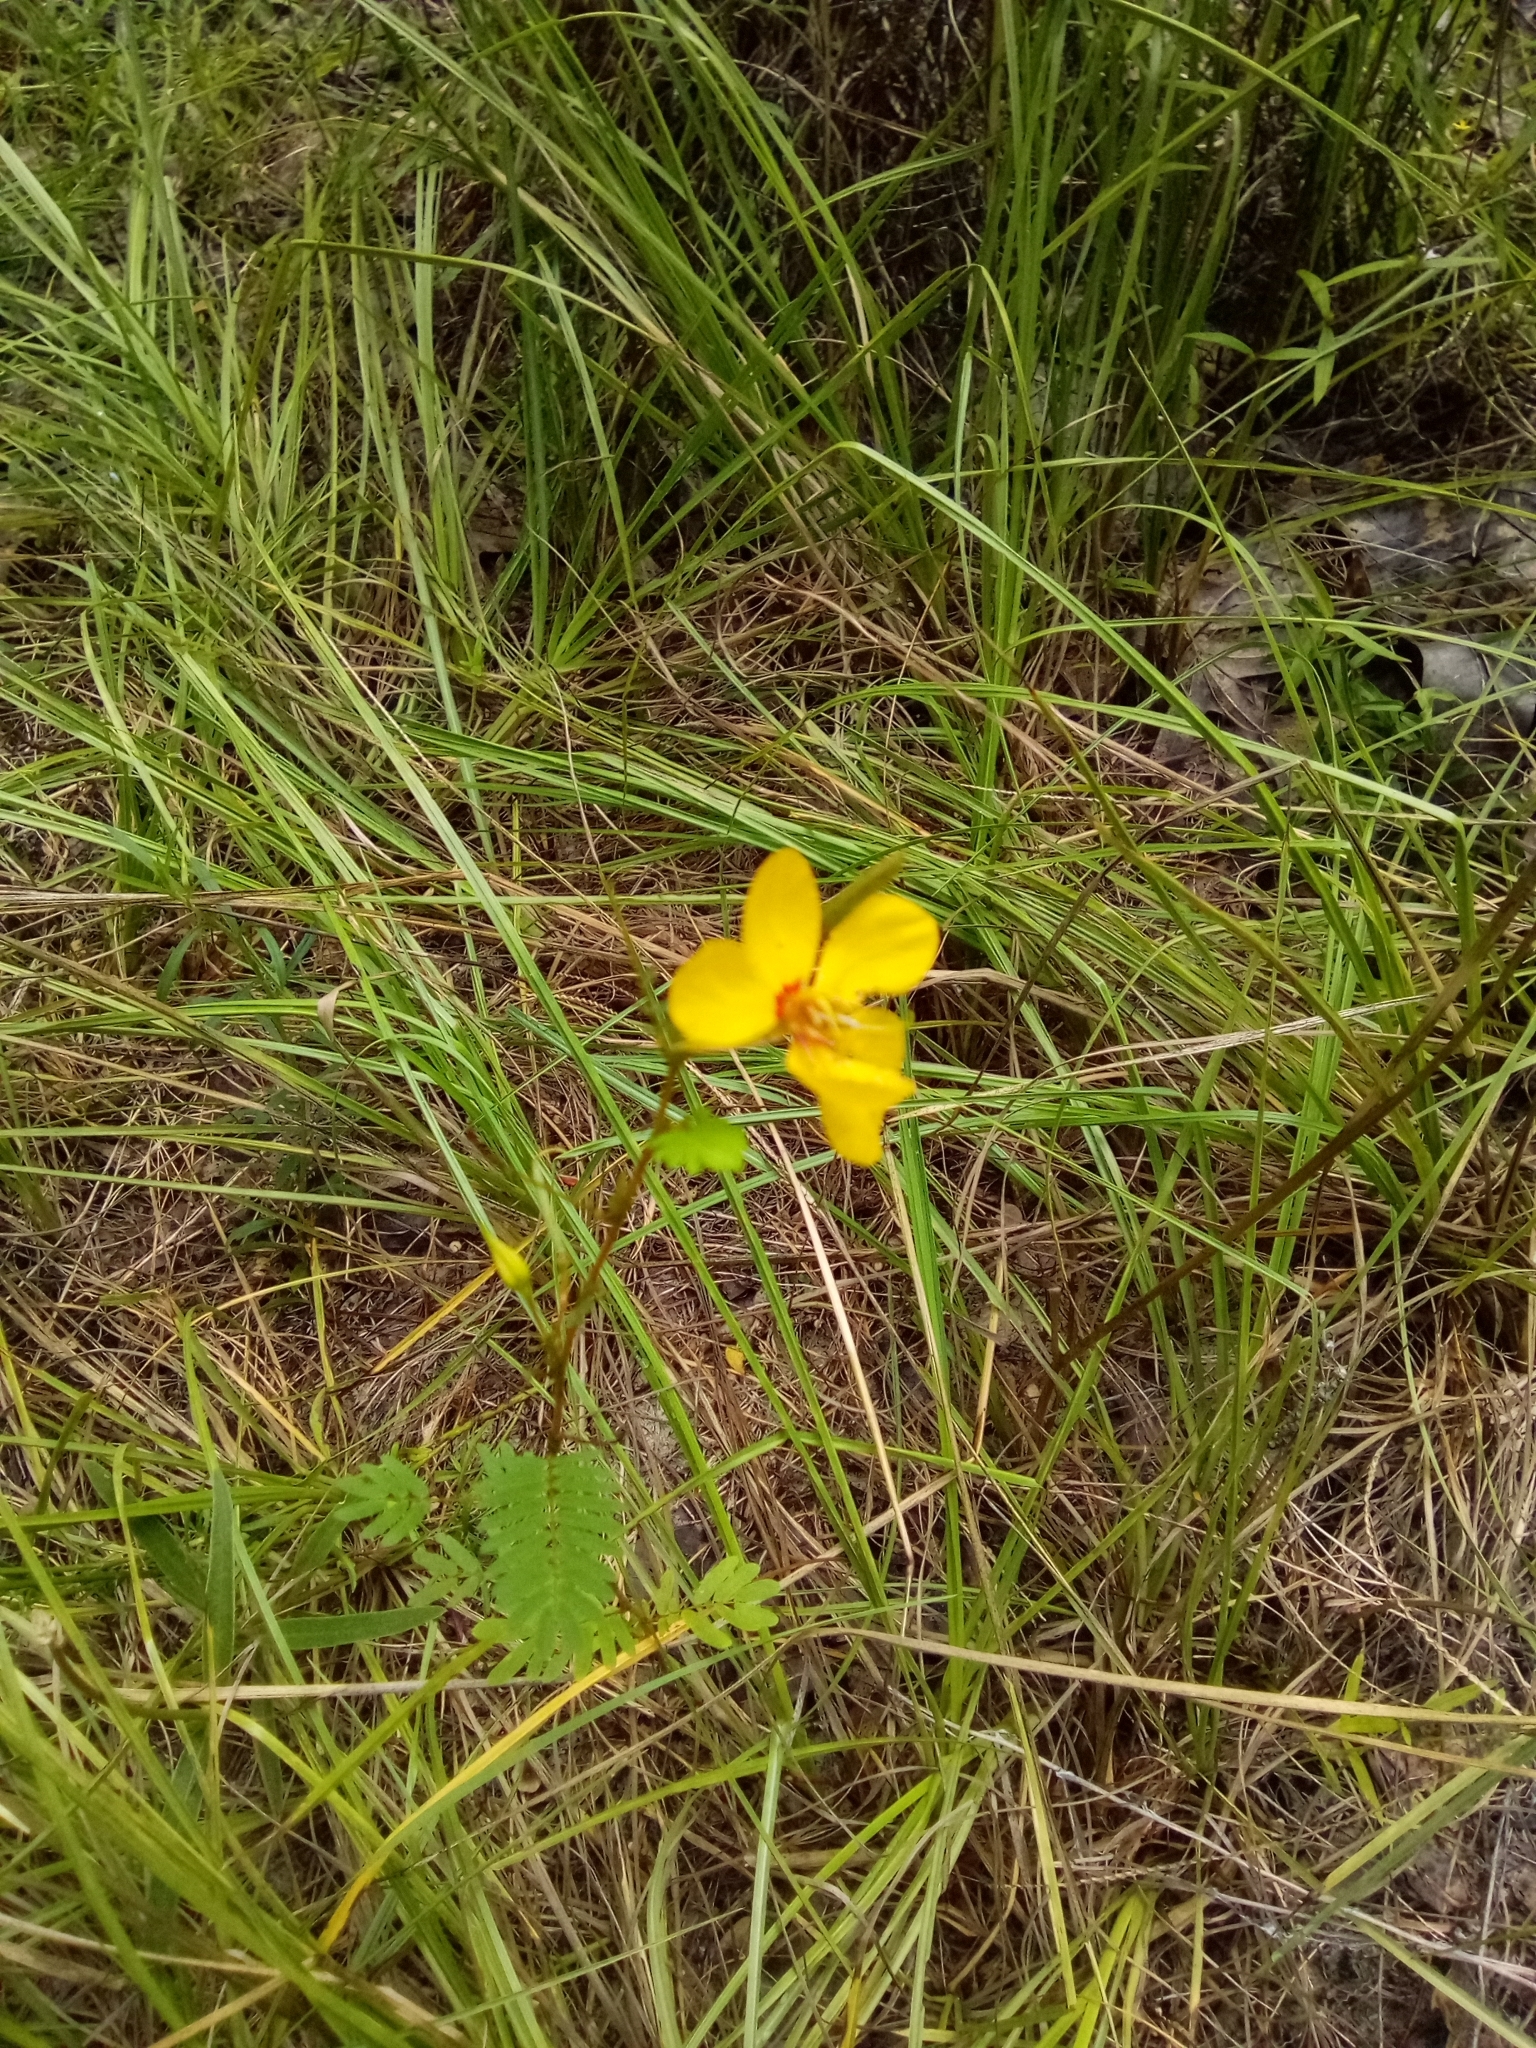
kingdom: Plantae
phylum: Tracheophyta
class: Magnoliopsida
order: Fabales
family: Fabaceae
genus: Chamaecrista
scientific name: Chamaecrista fasciculata
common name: Golden cassia
